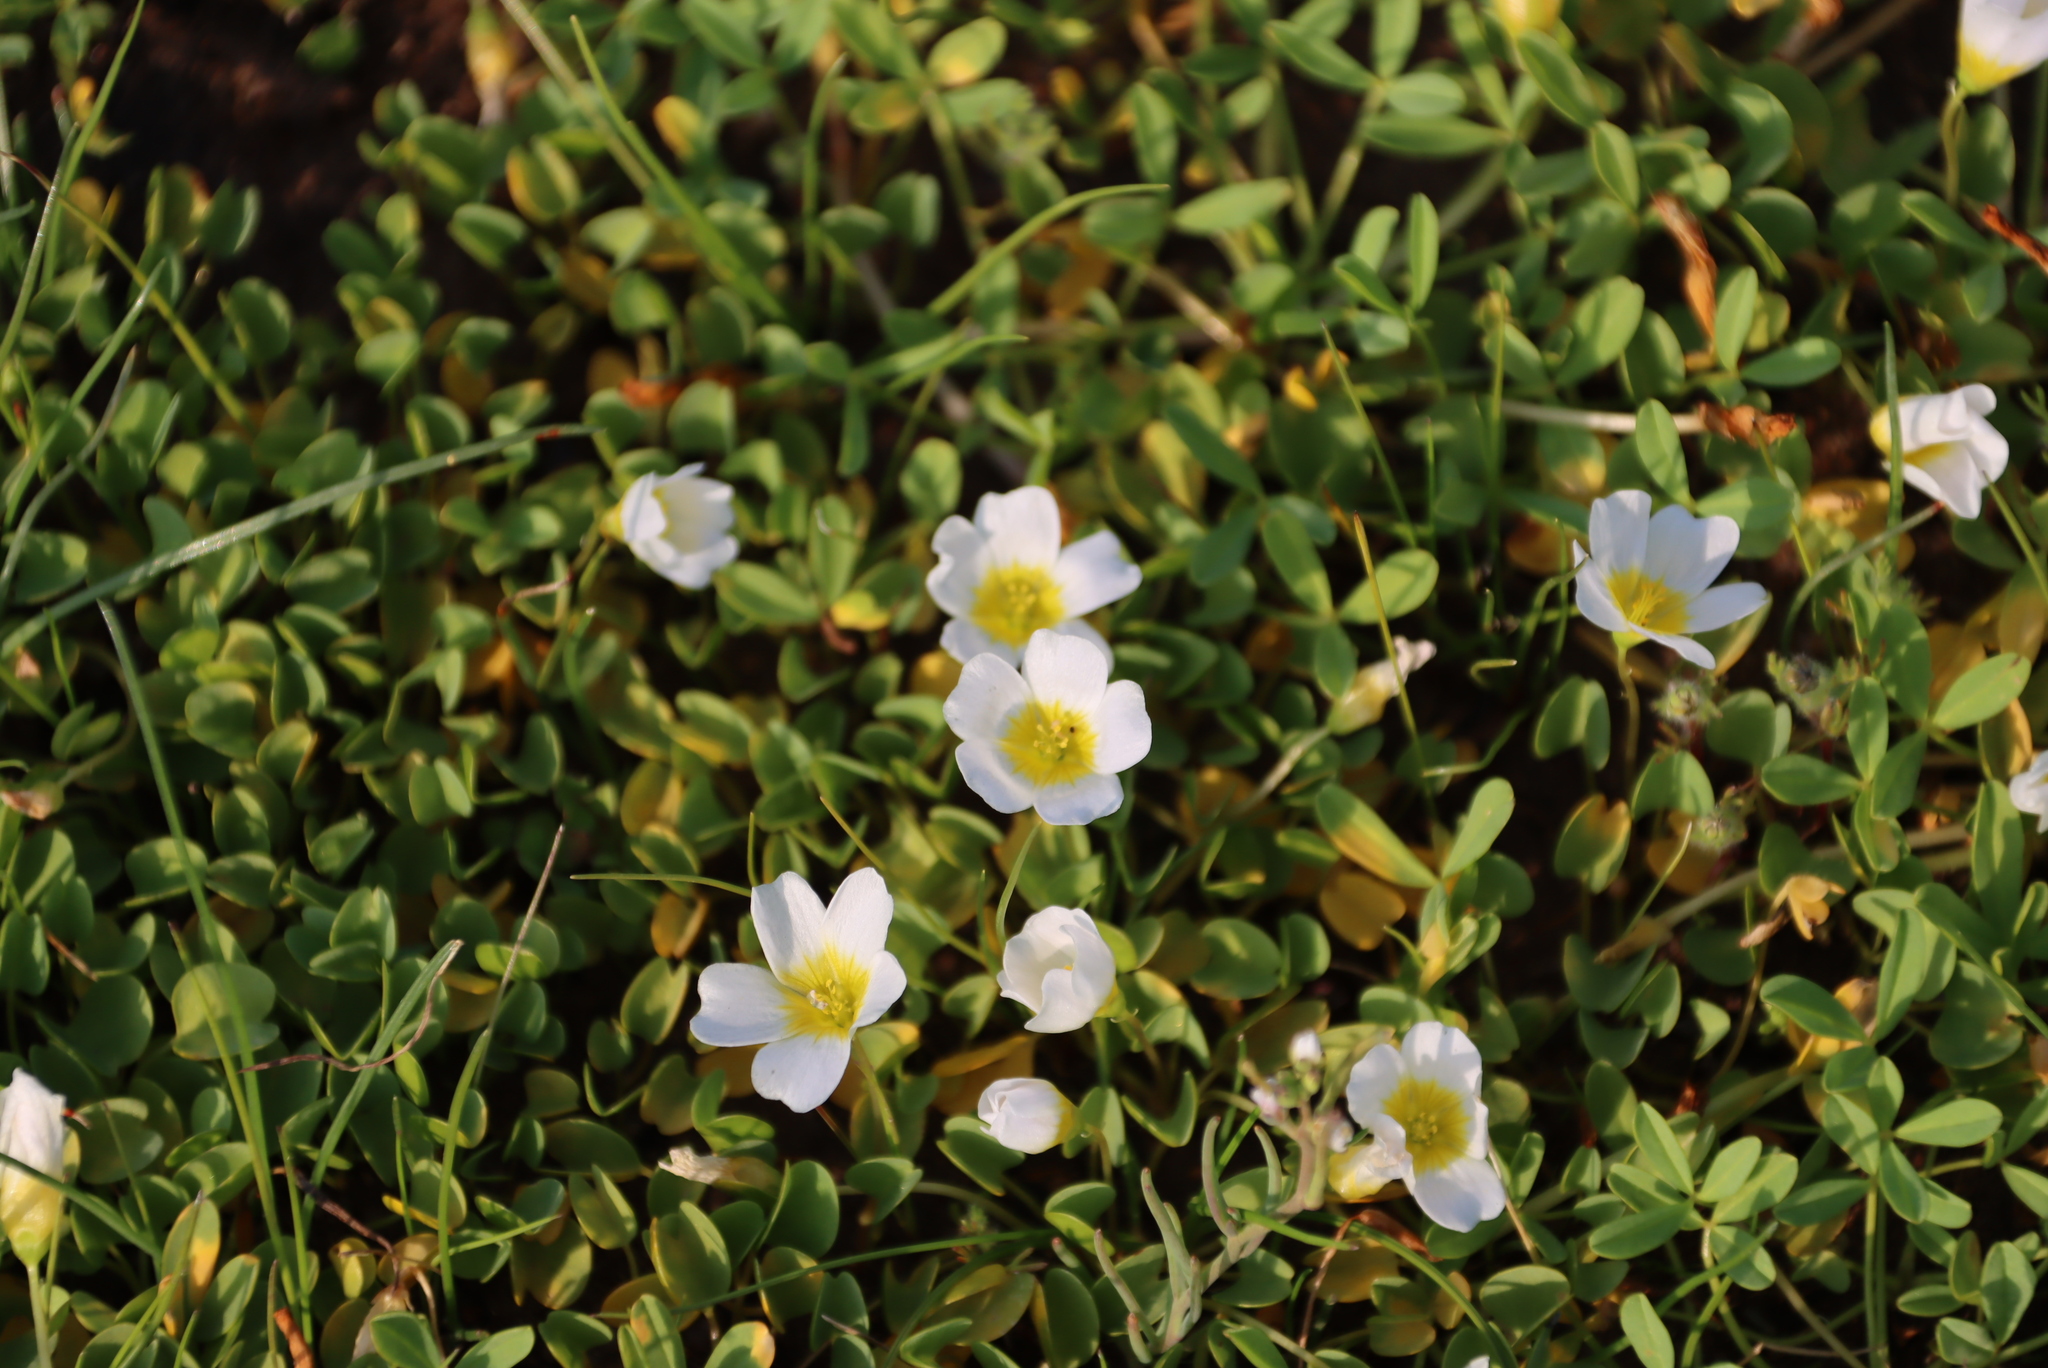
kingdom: Plantae
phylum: Tracheophyta
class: Magnoliopsida
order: Oxalidales
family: Oxalidaceae
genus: Oxalis
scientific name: Oxalis dregei
